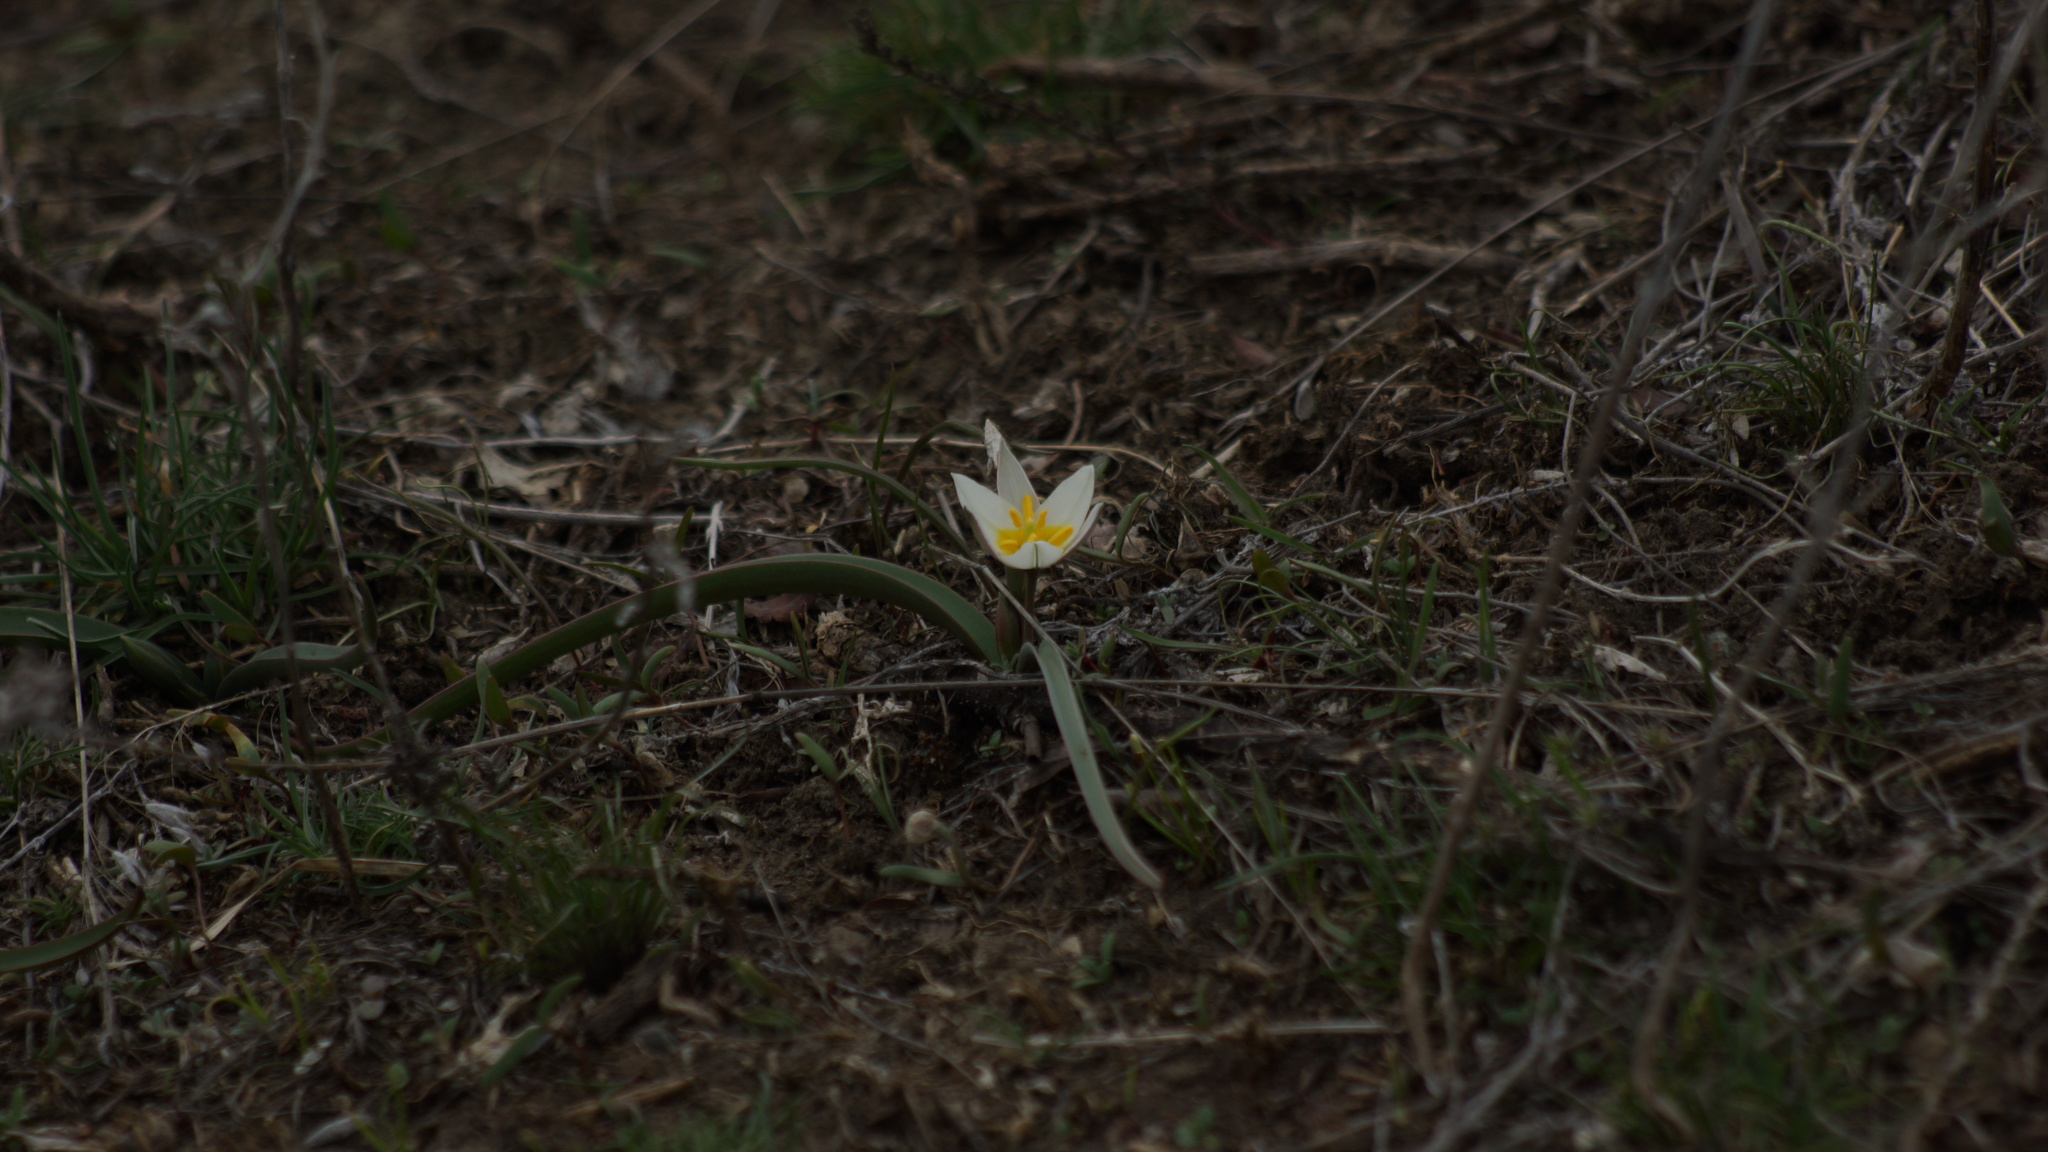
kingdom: Plantae
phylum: Tracheophyta
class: Liliopsida
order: Liliales
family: Liliaceae
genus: Tulipa
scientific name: Tulipa biflora
